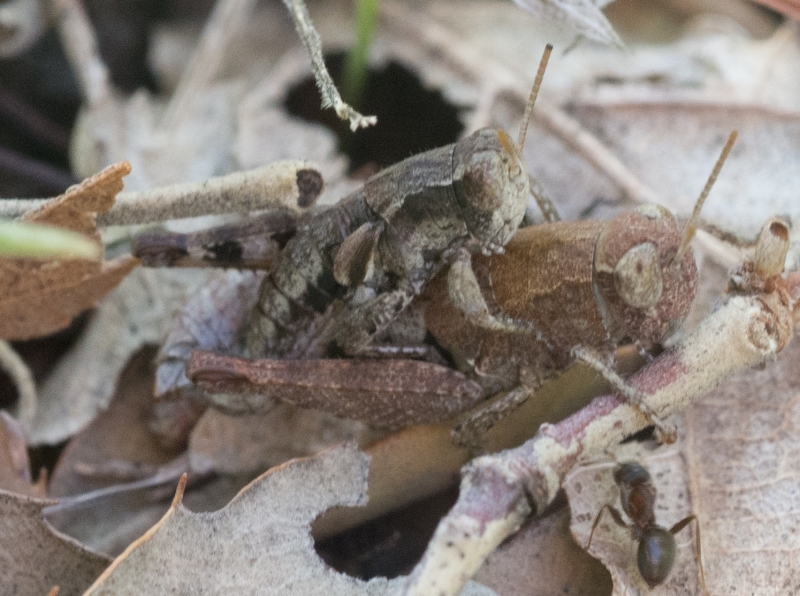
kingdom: Animalia
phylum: Arthropoda
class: Insecta
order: Orthoptera
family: Acrididae
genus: Pezotettix
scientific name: Pezotettix giornae
